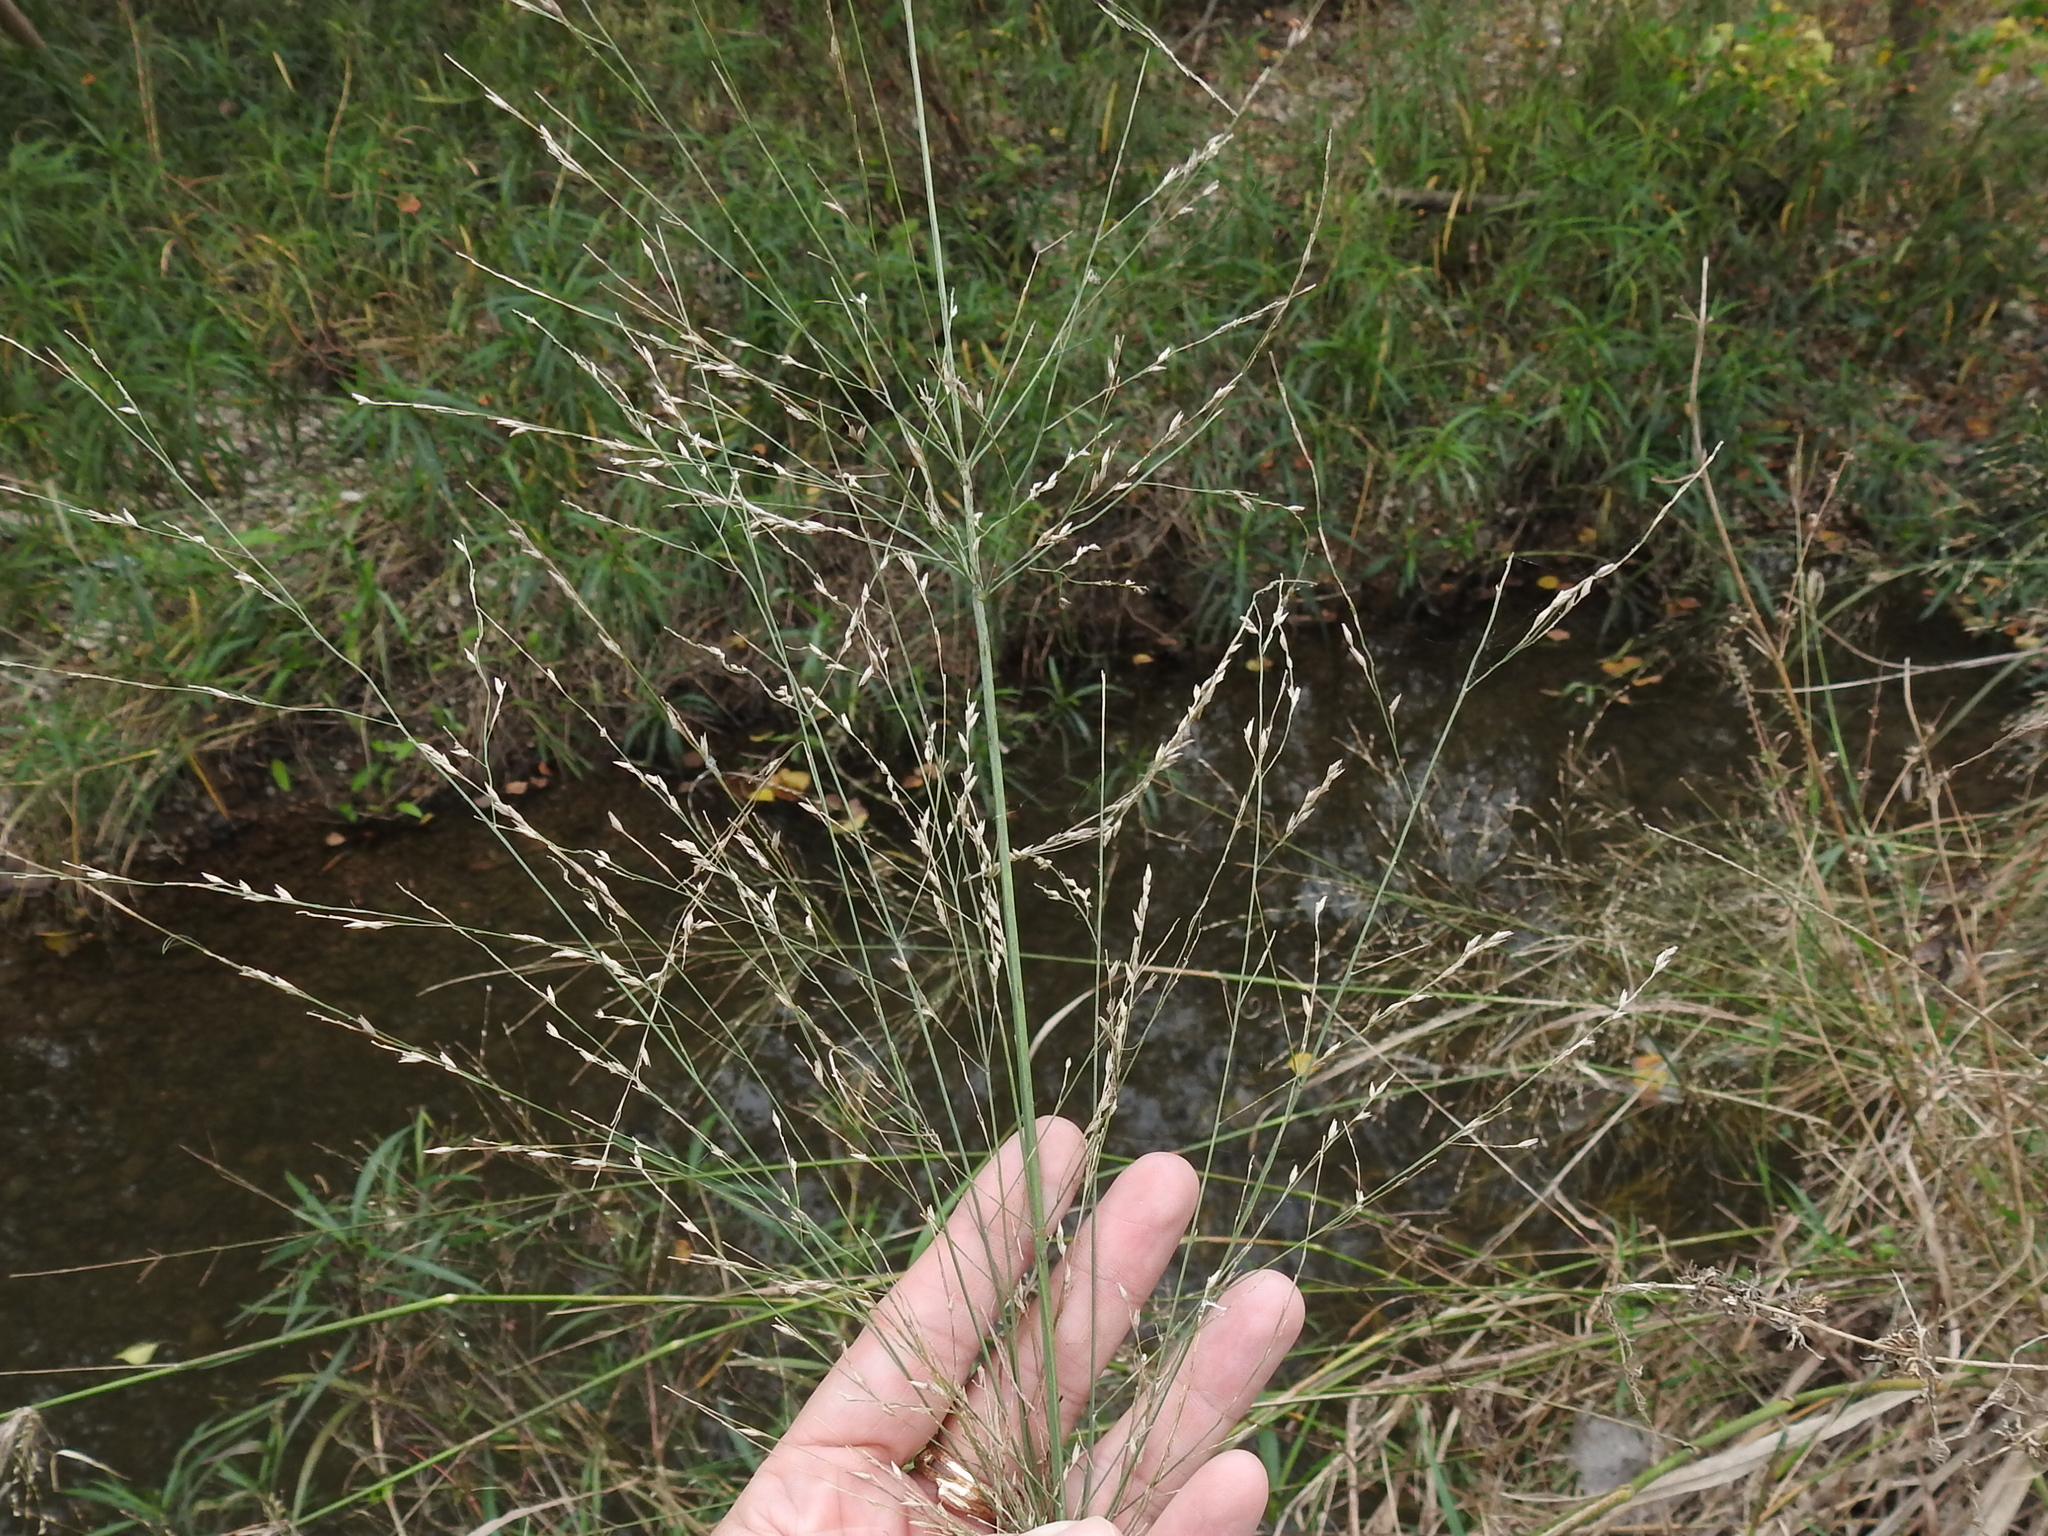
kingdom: Plantae
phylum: Tracheophyta
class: Liliopsida
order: Poales
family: Poaceae
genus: Panicum
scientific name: Panicum virgatum
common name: Switchgrass
